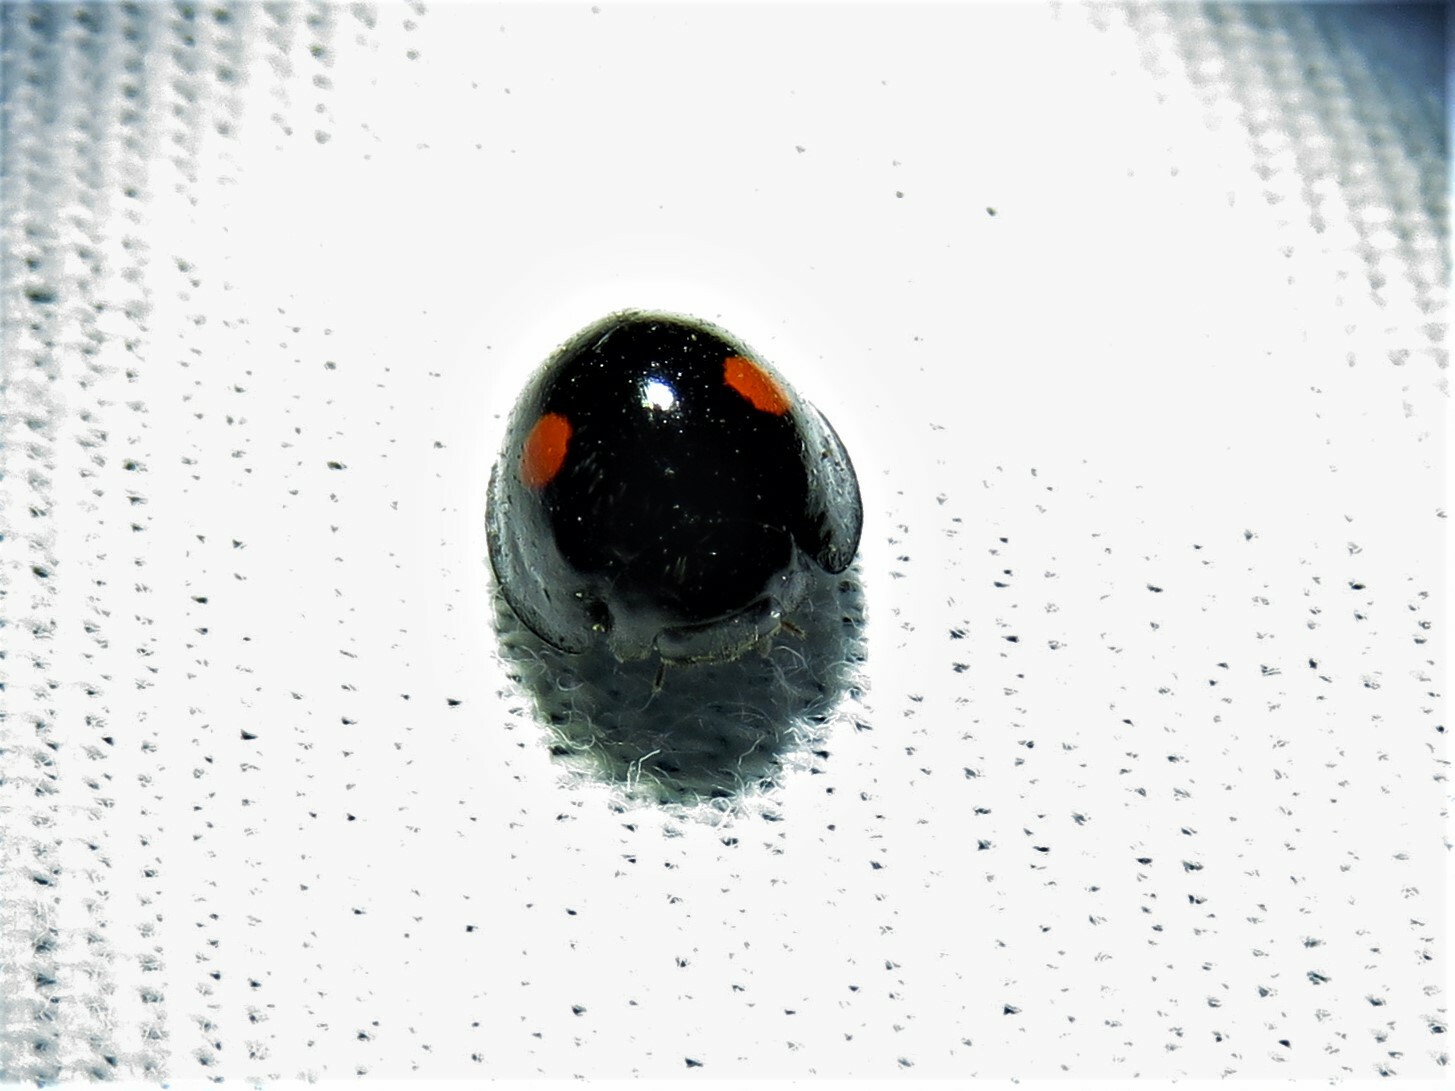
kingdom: Animalia
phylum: Arthropoda
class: Insecta
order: Coleoptera
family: Coccinellidae
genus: Chilocorus
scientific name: Chilocorus stigma
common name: Twicestabbed lady beetle
